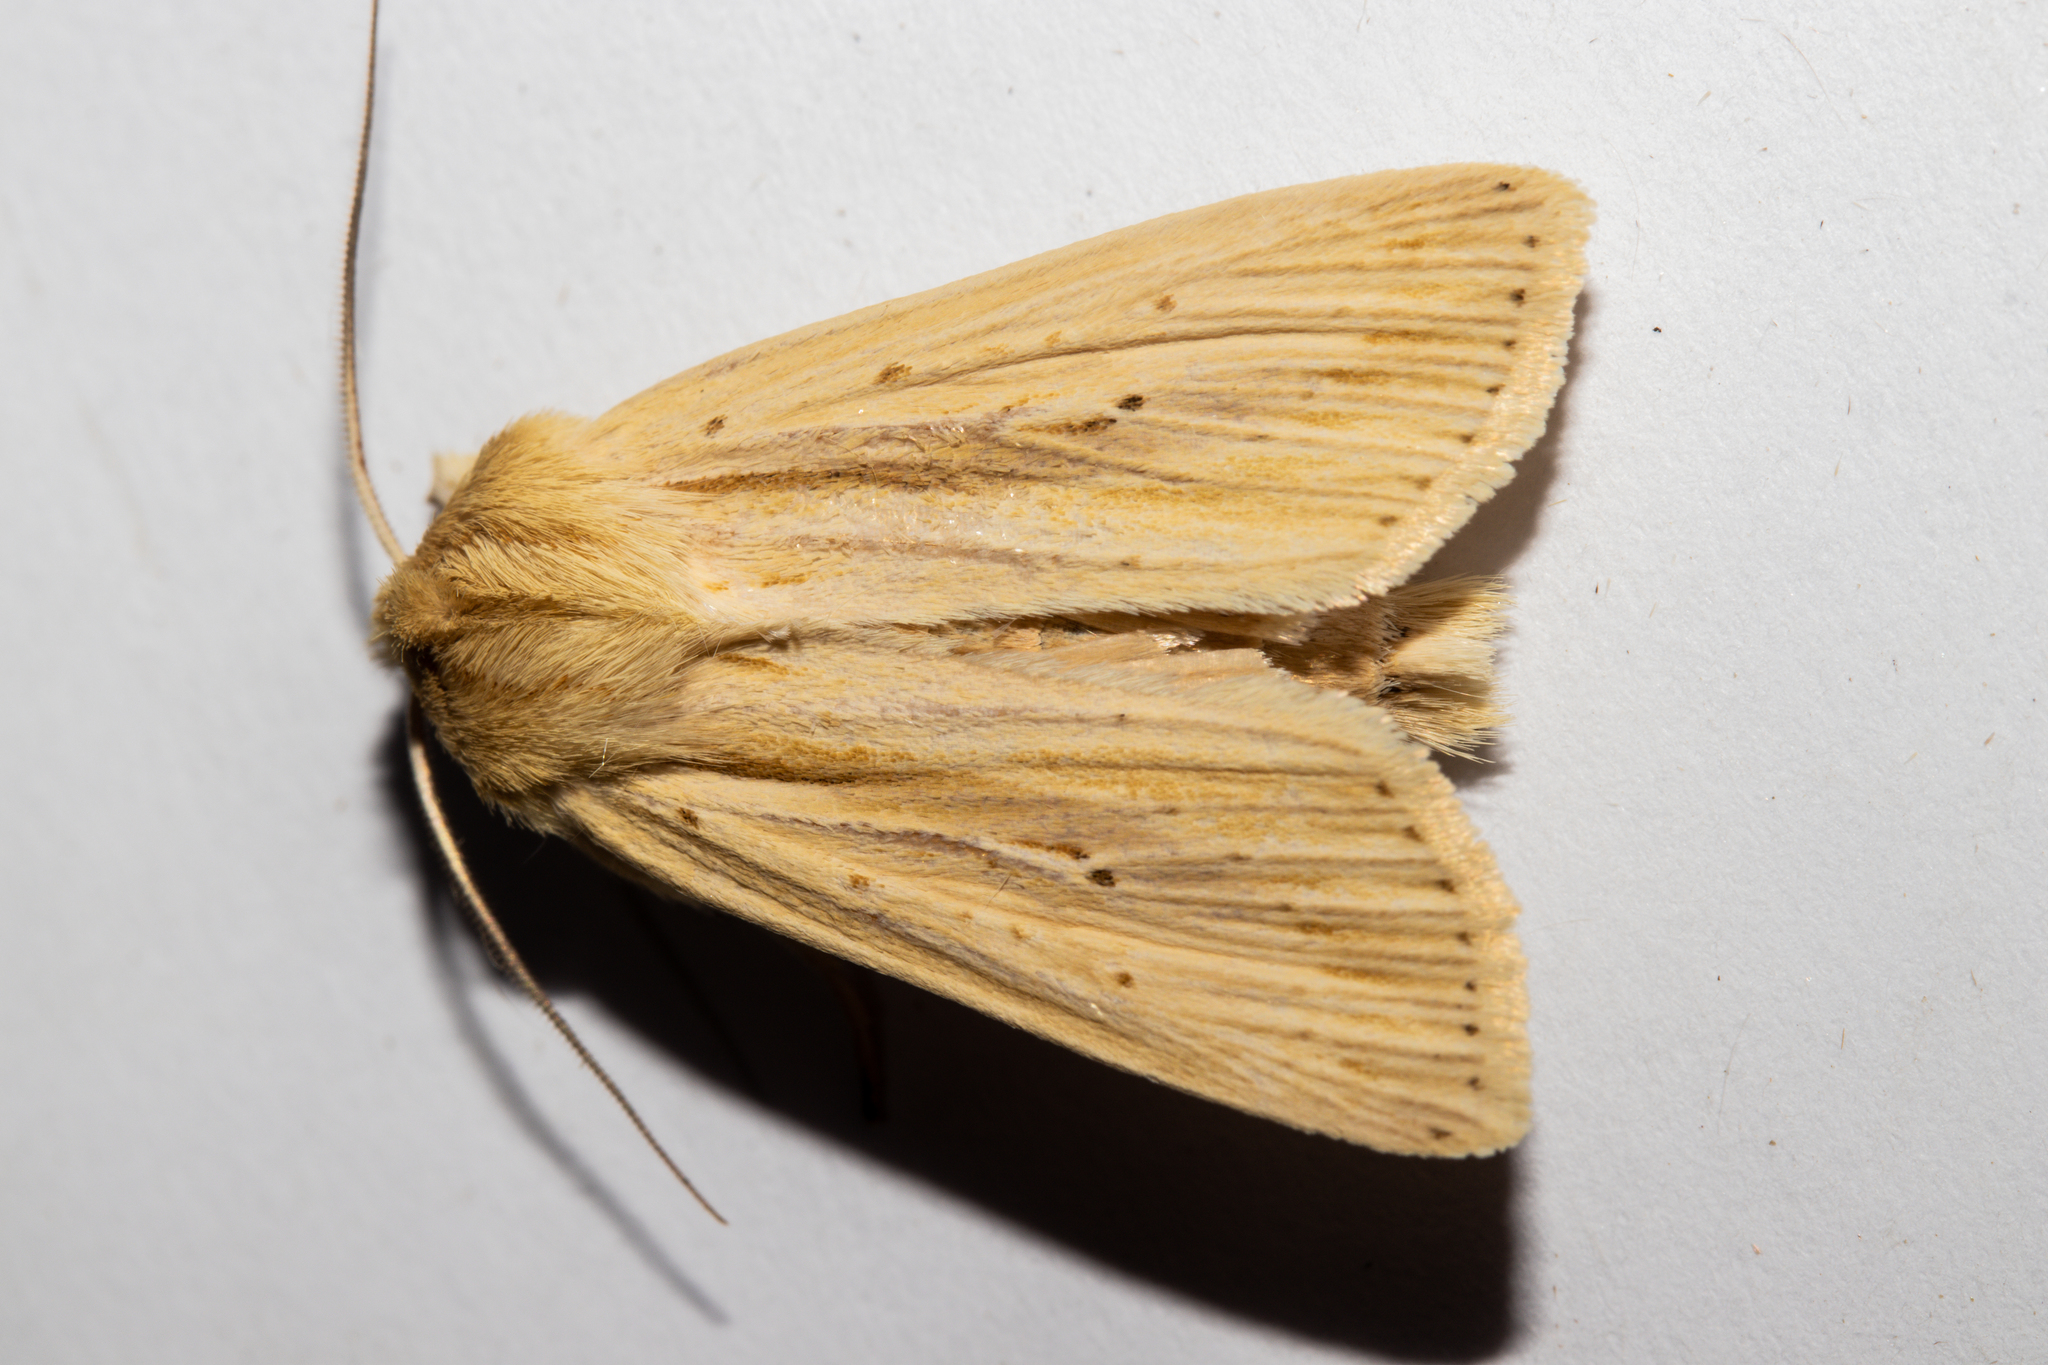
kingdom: Animalia
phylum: Arthropoda
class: Insecta
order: Lepidoptera
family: Noctuidae
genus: Ichneutica
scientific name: Ichneutica semivittata
